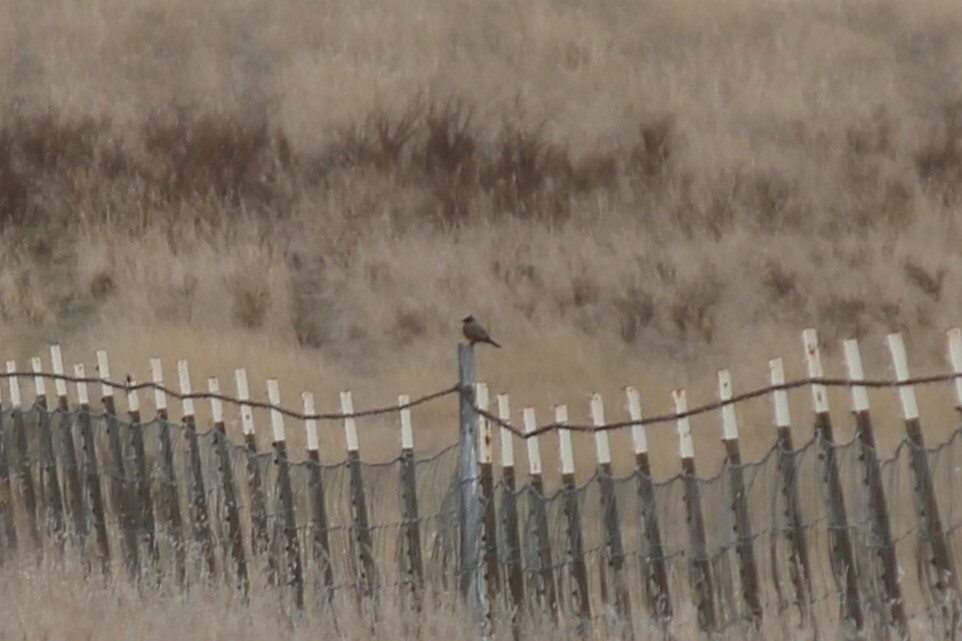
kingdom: Animalia
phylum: Chordata
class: Aves
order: Passeriformes
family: Tyrannidae
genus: Sayornis
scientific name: Sayornis saya
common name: Say's phoebe
